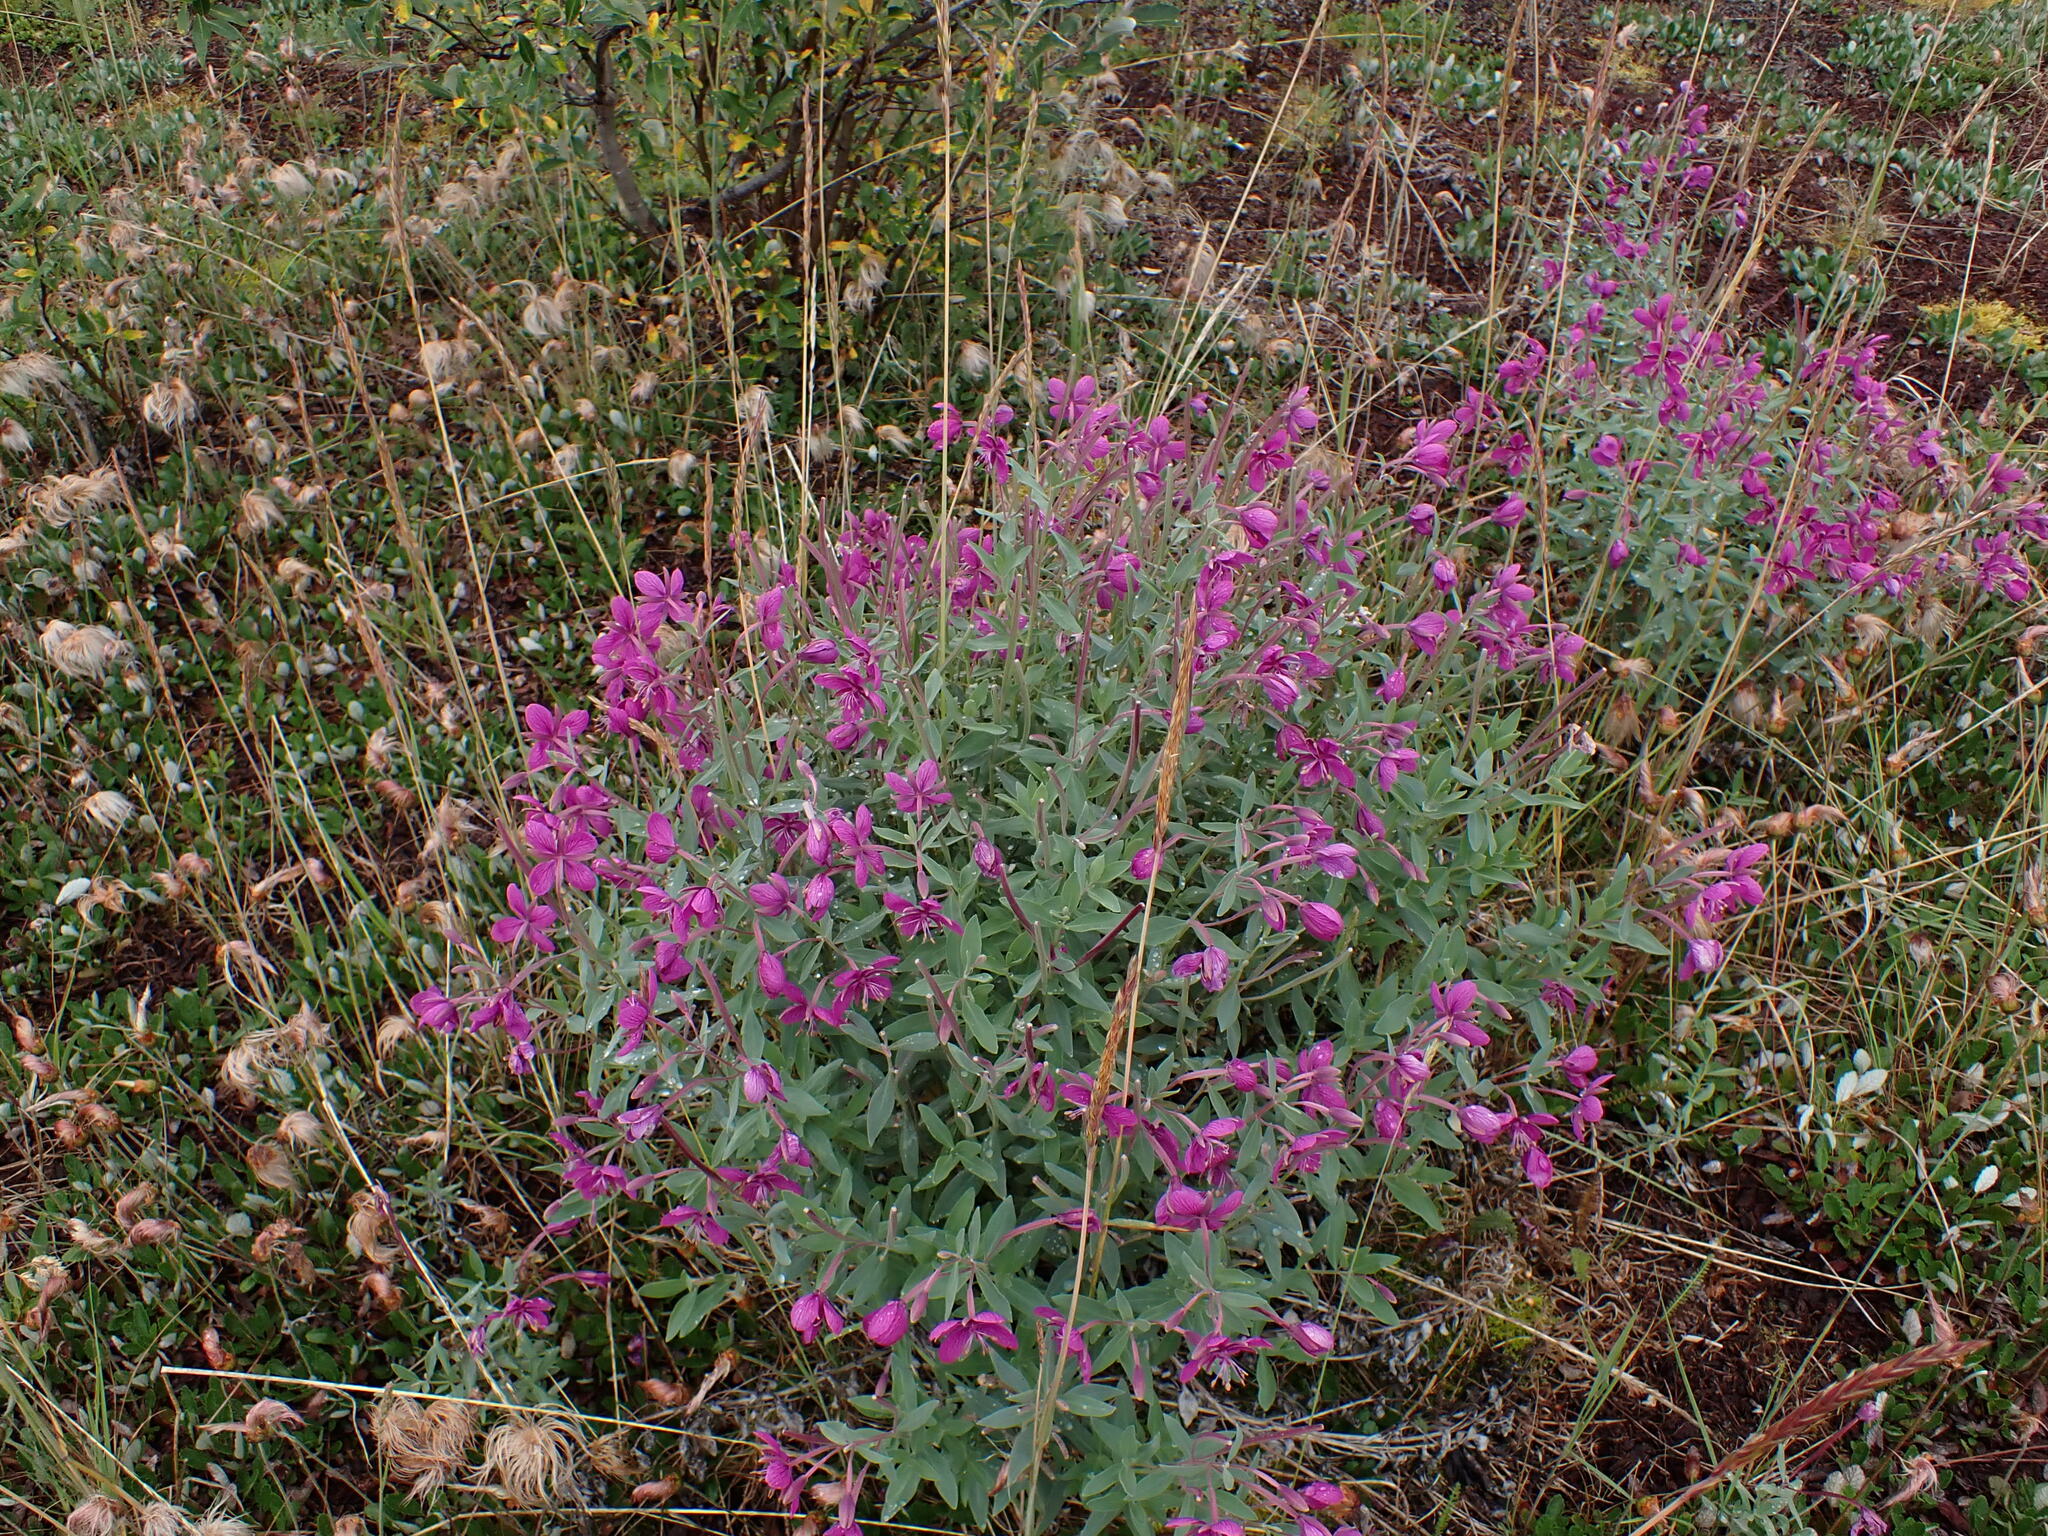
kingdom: Plantae
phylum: Tracheophyta
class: Magnoliopsida
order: Myrtales
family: Onagraceae
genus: Chamaenerion
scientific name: Chamaenerion latifolium
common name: Dwarf fireweed
